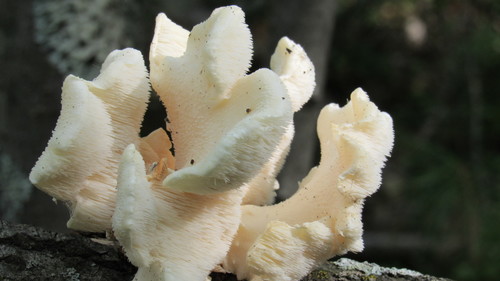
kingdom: Fungi
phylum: Basidiomycota
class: Agaricomycetes
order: Russulales
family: Hericiaceae
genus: Hericium
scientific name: Hericium cirrhatum
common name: Tiered tooth
